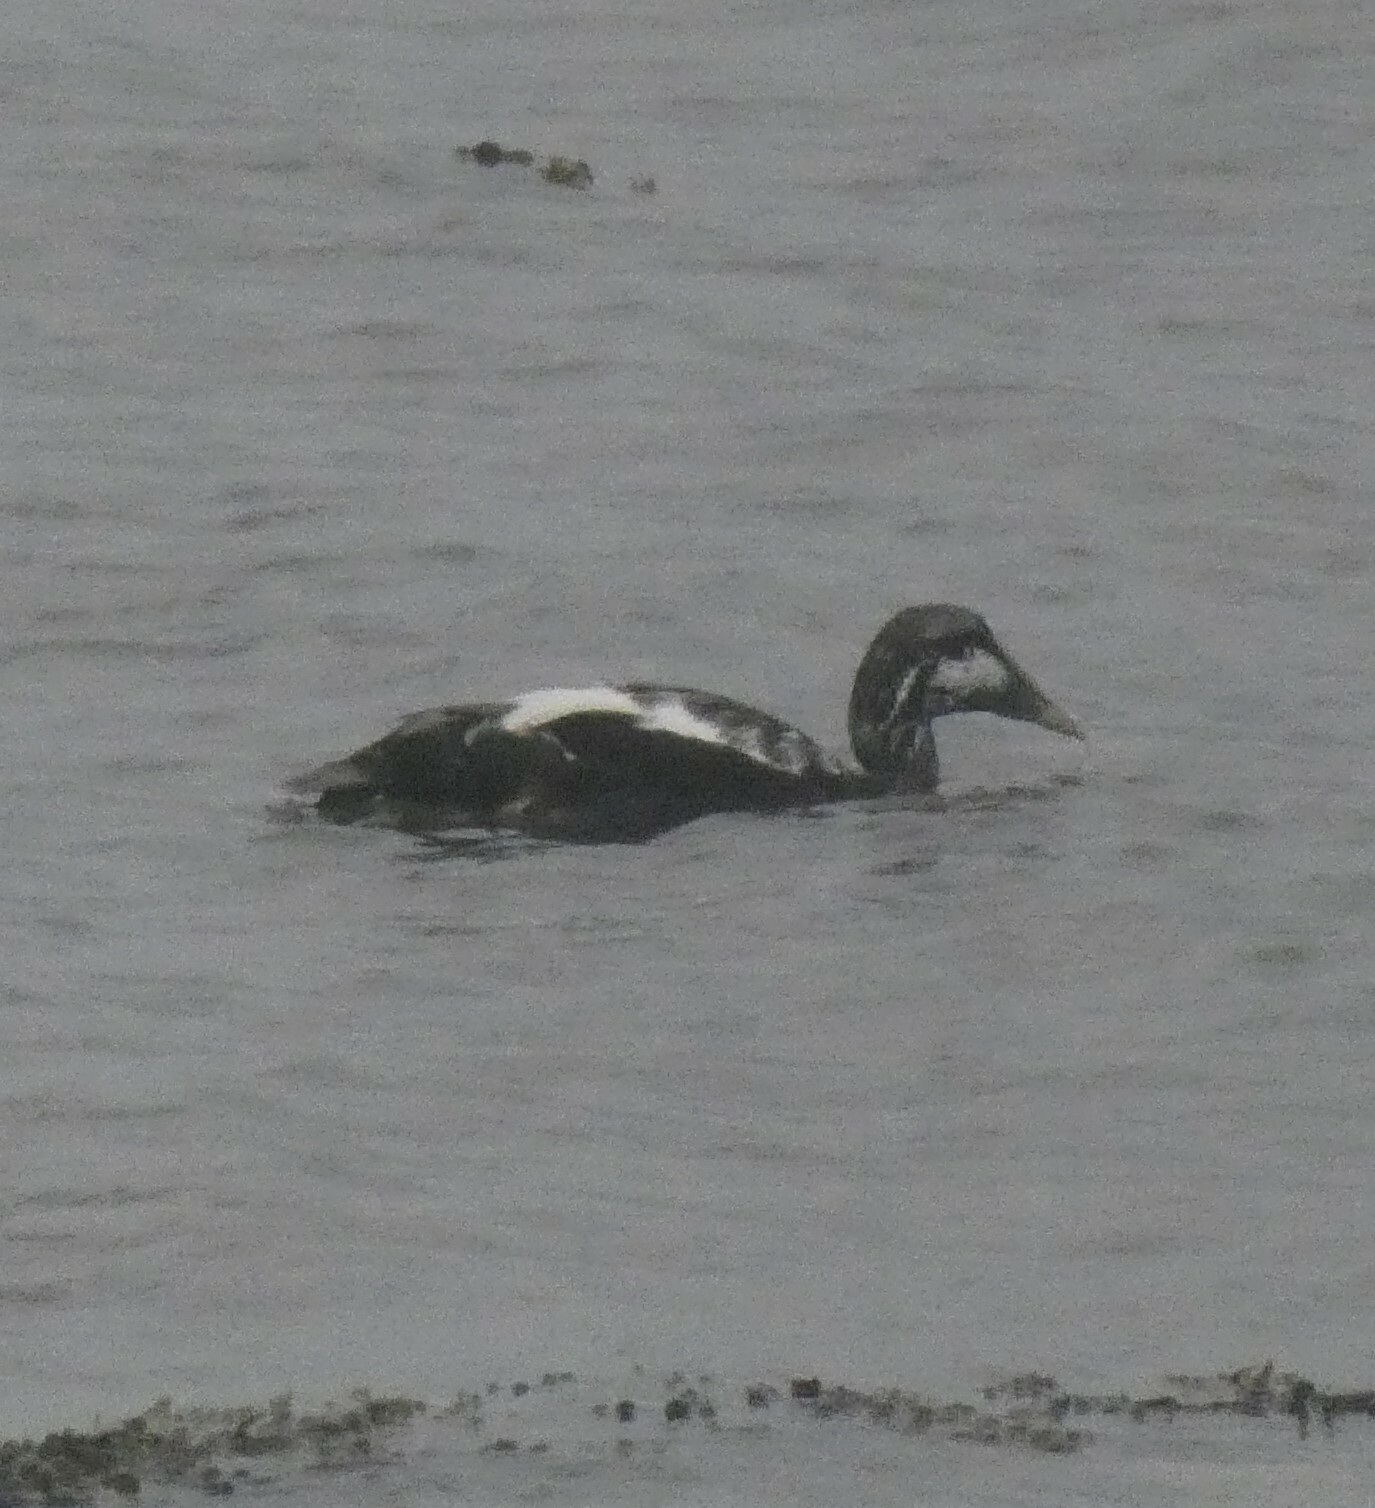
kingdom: Animalia
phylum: Chordata
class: Aves
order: Anseriformes
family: Anatidae
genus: Somateria
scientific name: Somateria mollissima
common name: Common eider
